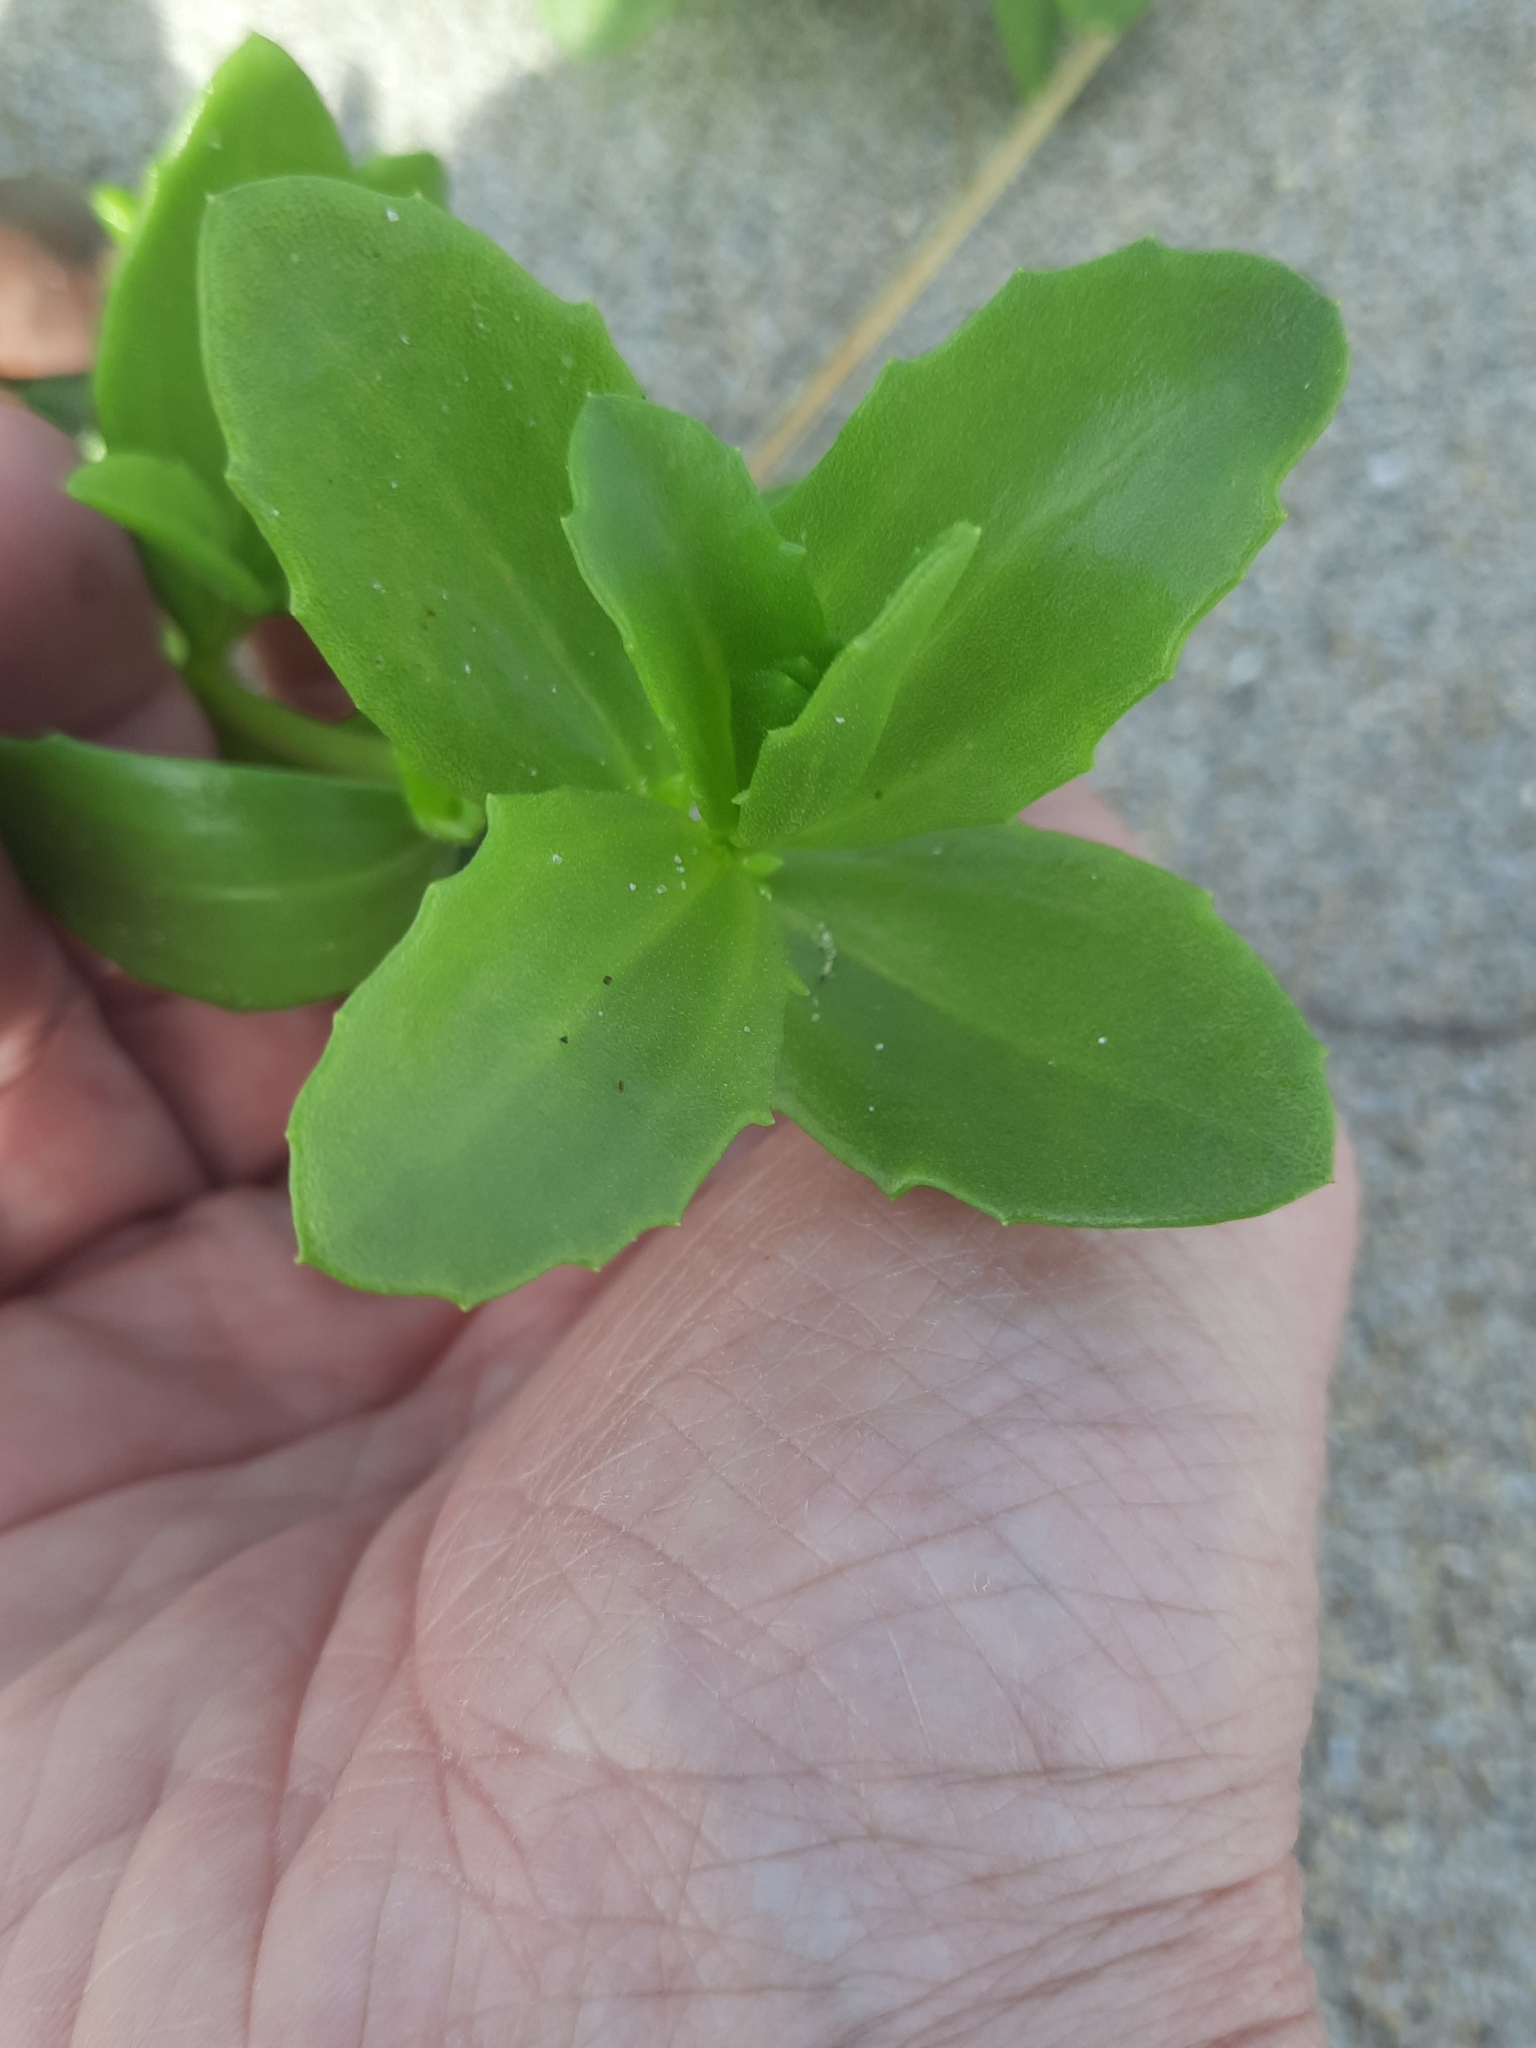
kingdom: Plantae
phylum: Tracheophyta
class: Magnoliopsida
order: Asterales
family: Asteraceae
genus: Iva
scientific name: Iva imbricata
